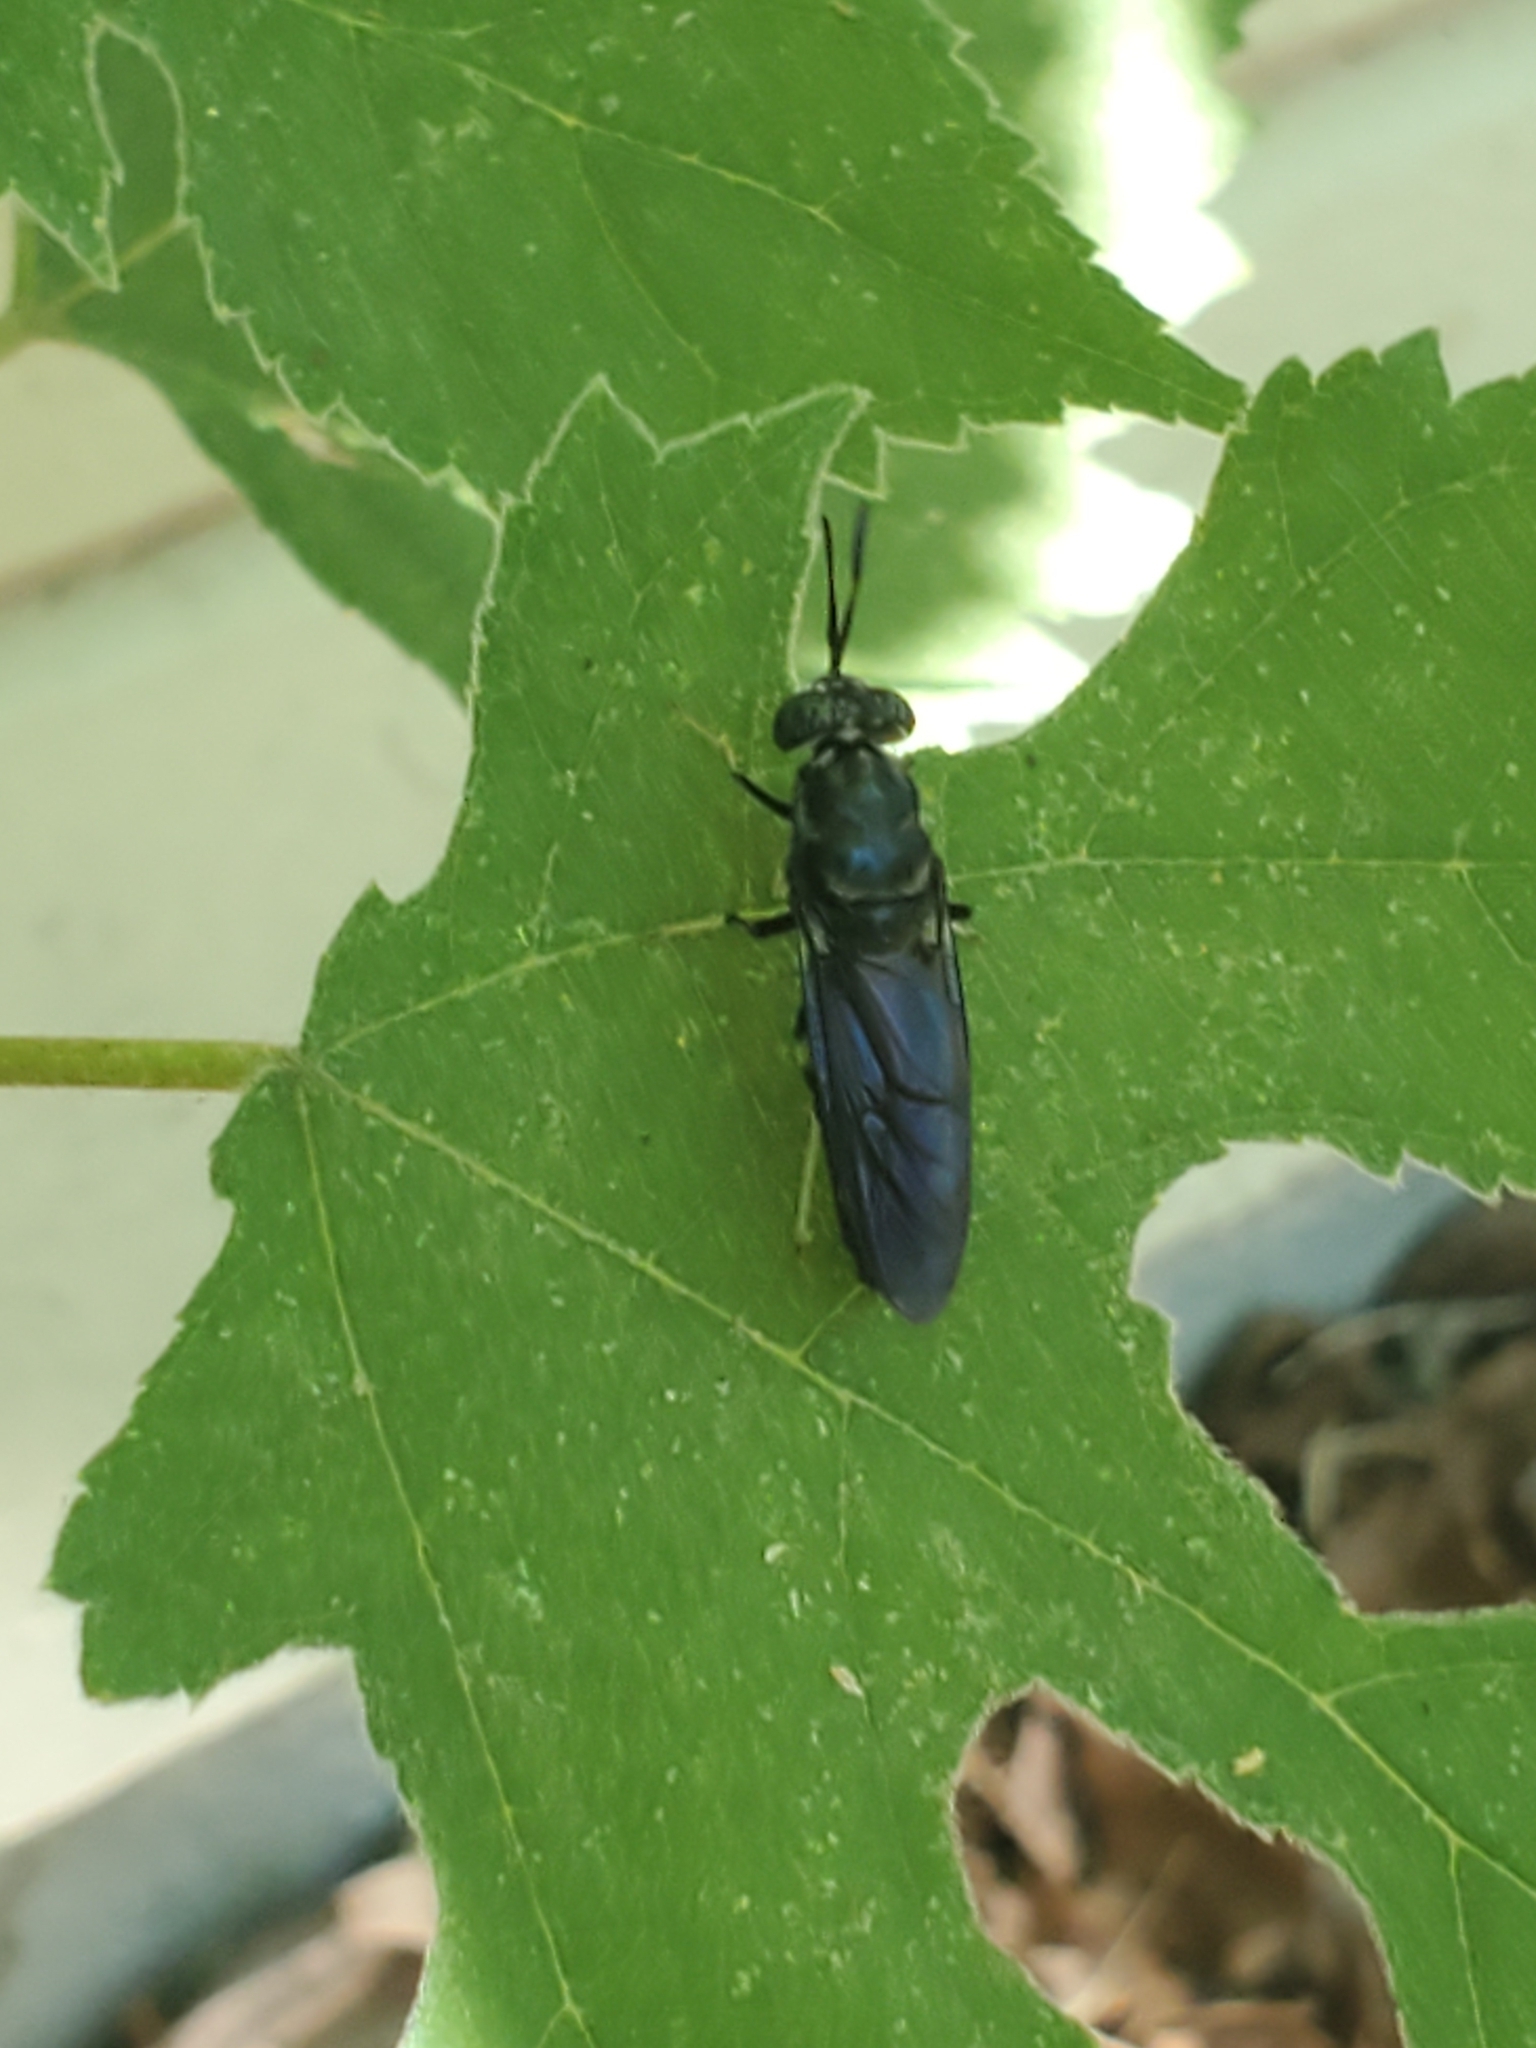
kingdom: Animalia
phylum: Arthropoda
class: Insecta
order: Diptera
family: Stratiomyidae
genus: Hermetia
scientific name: Hermetia illucens
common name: Black soldier fly
